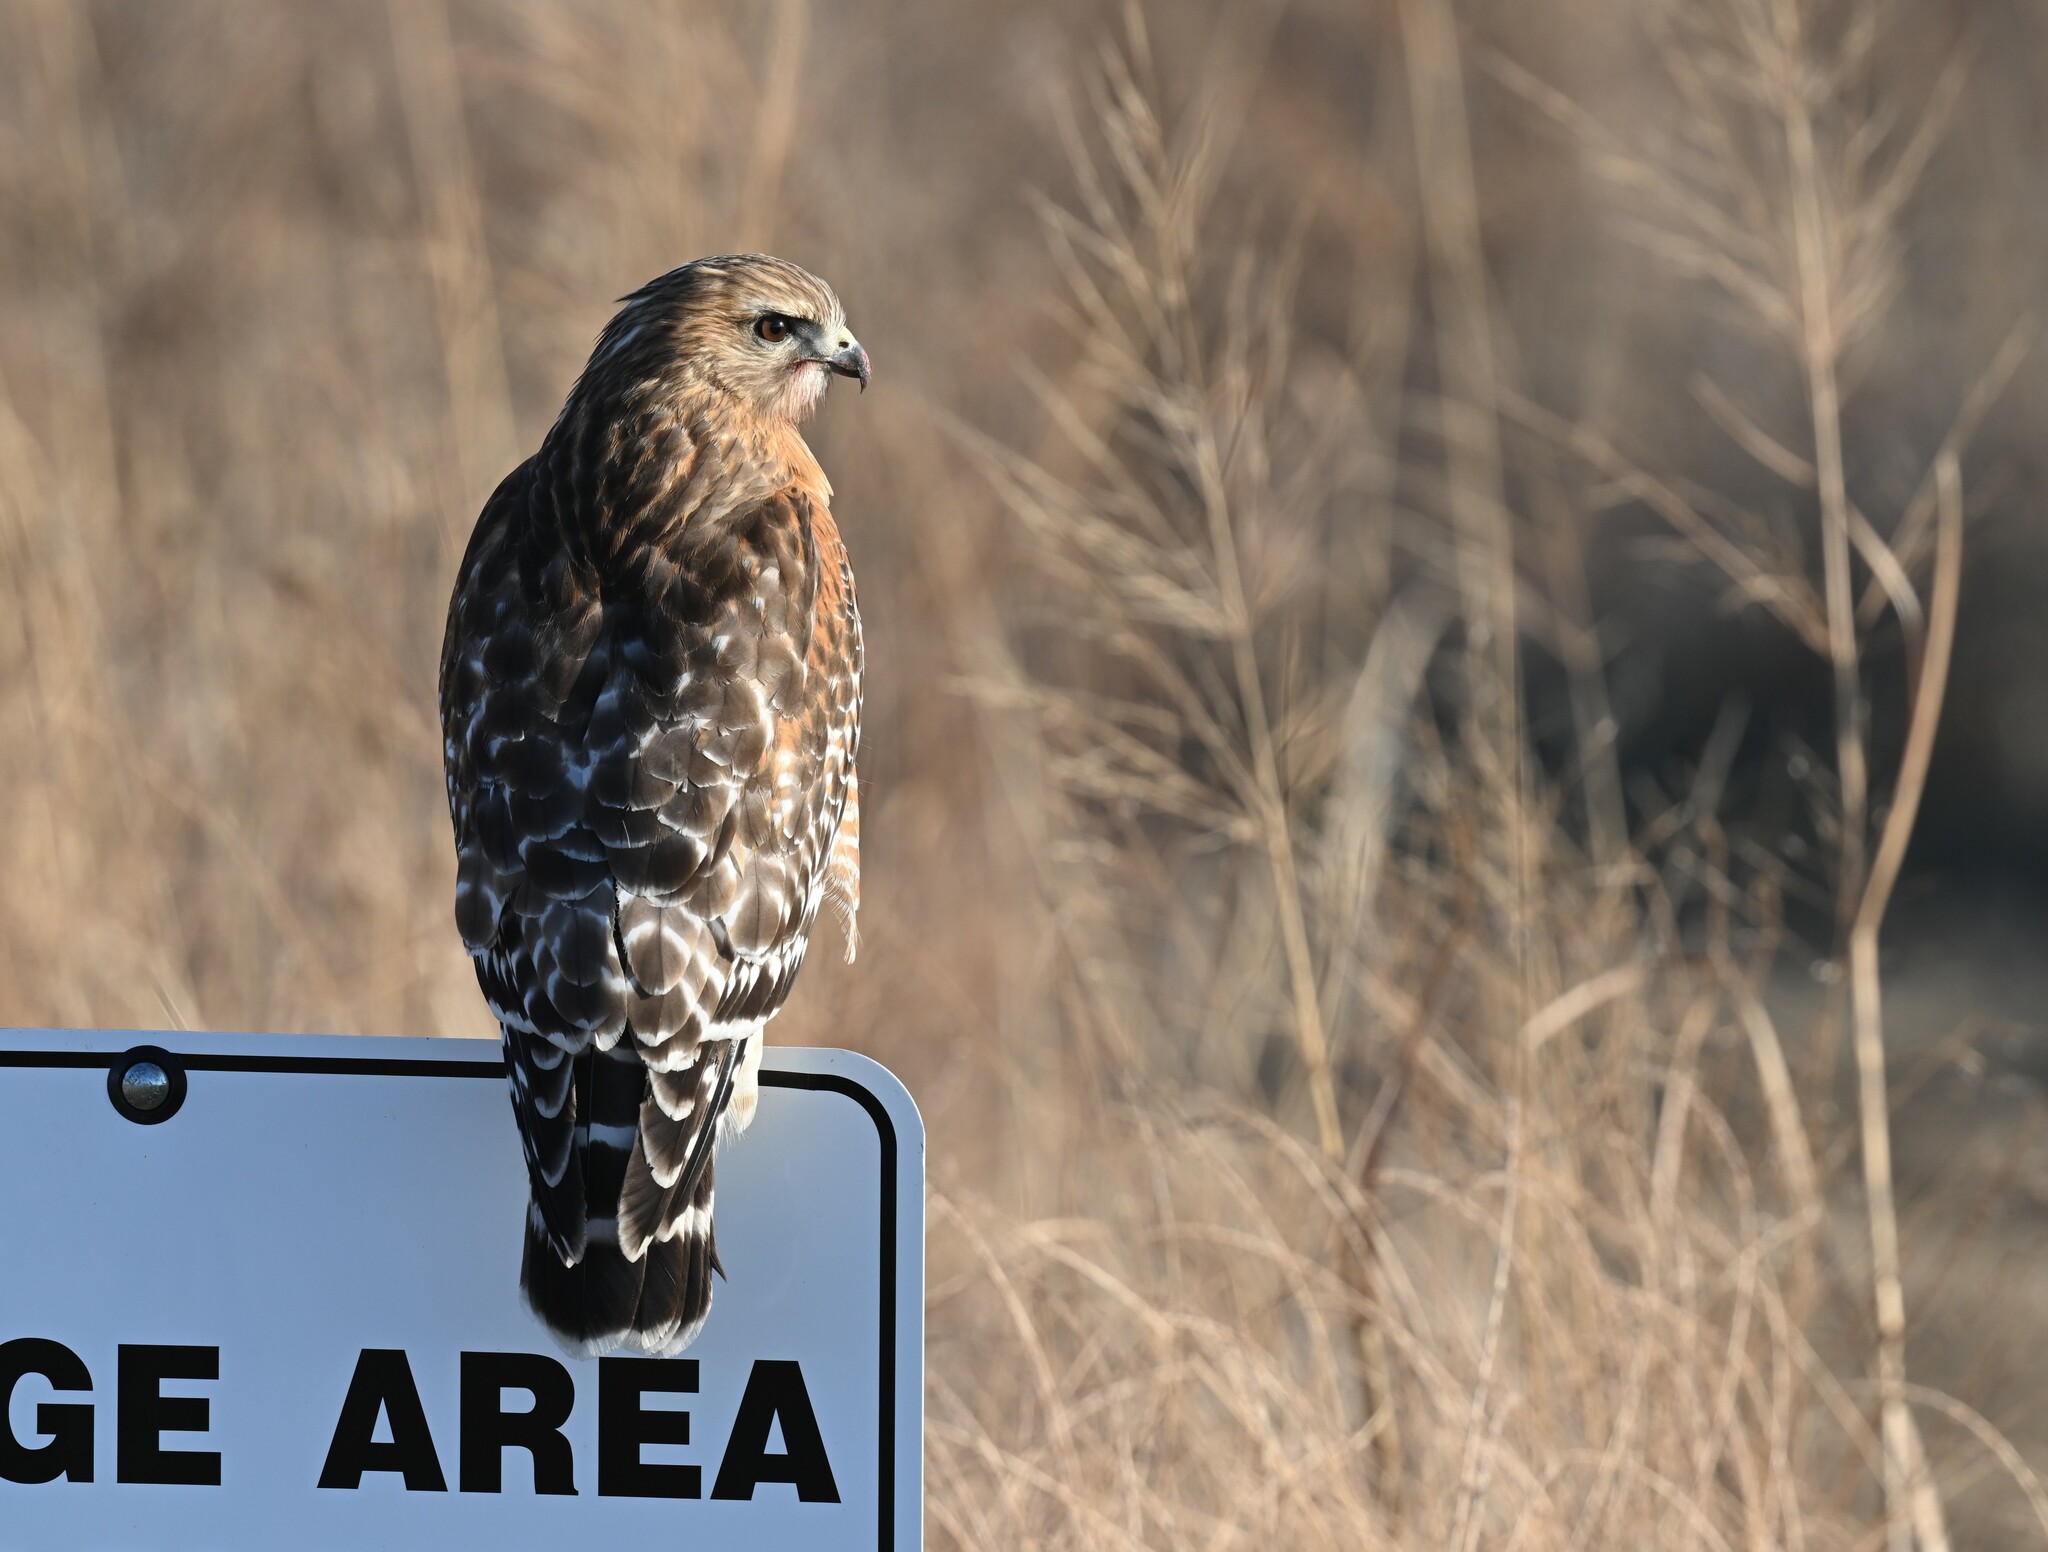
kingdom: Animalia
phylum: Chordata
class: Aves
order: Accipitriformes
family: Accipitridae
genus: Buteo
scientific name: Buteo lineatus
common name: Red-shouldered hawk
